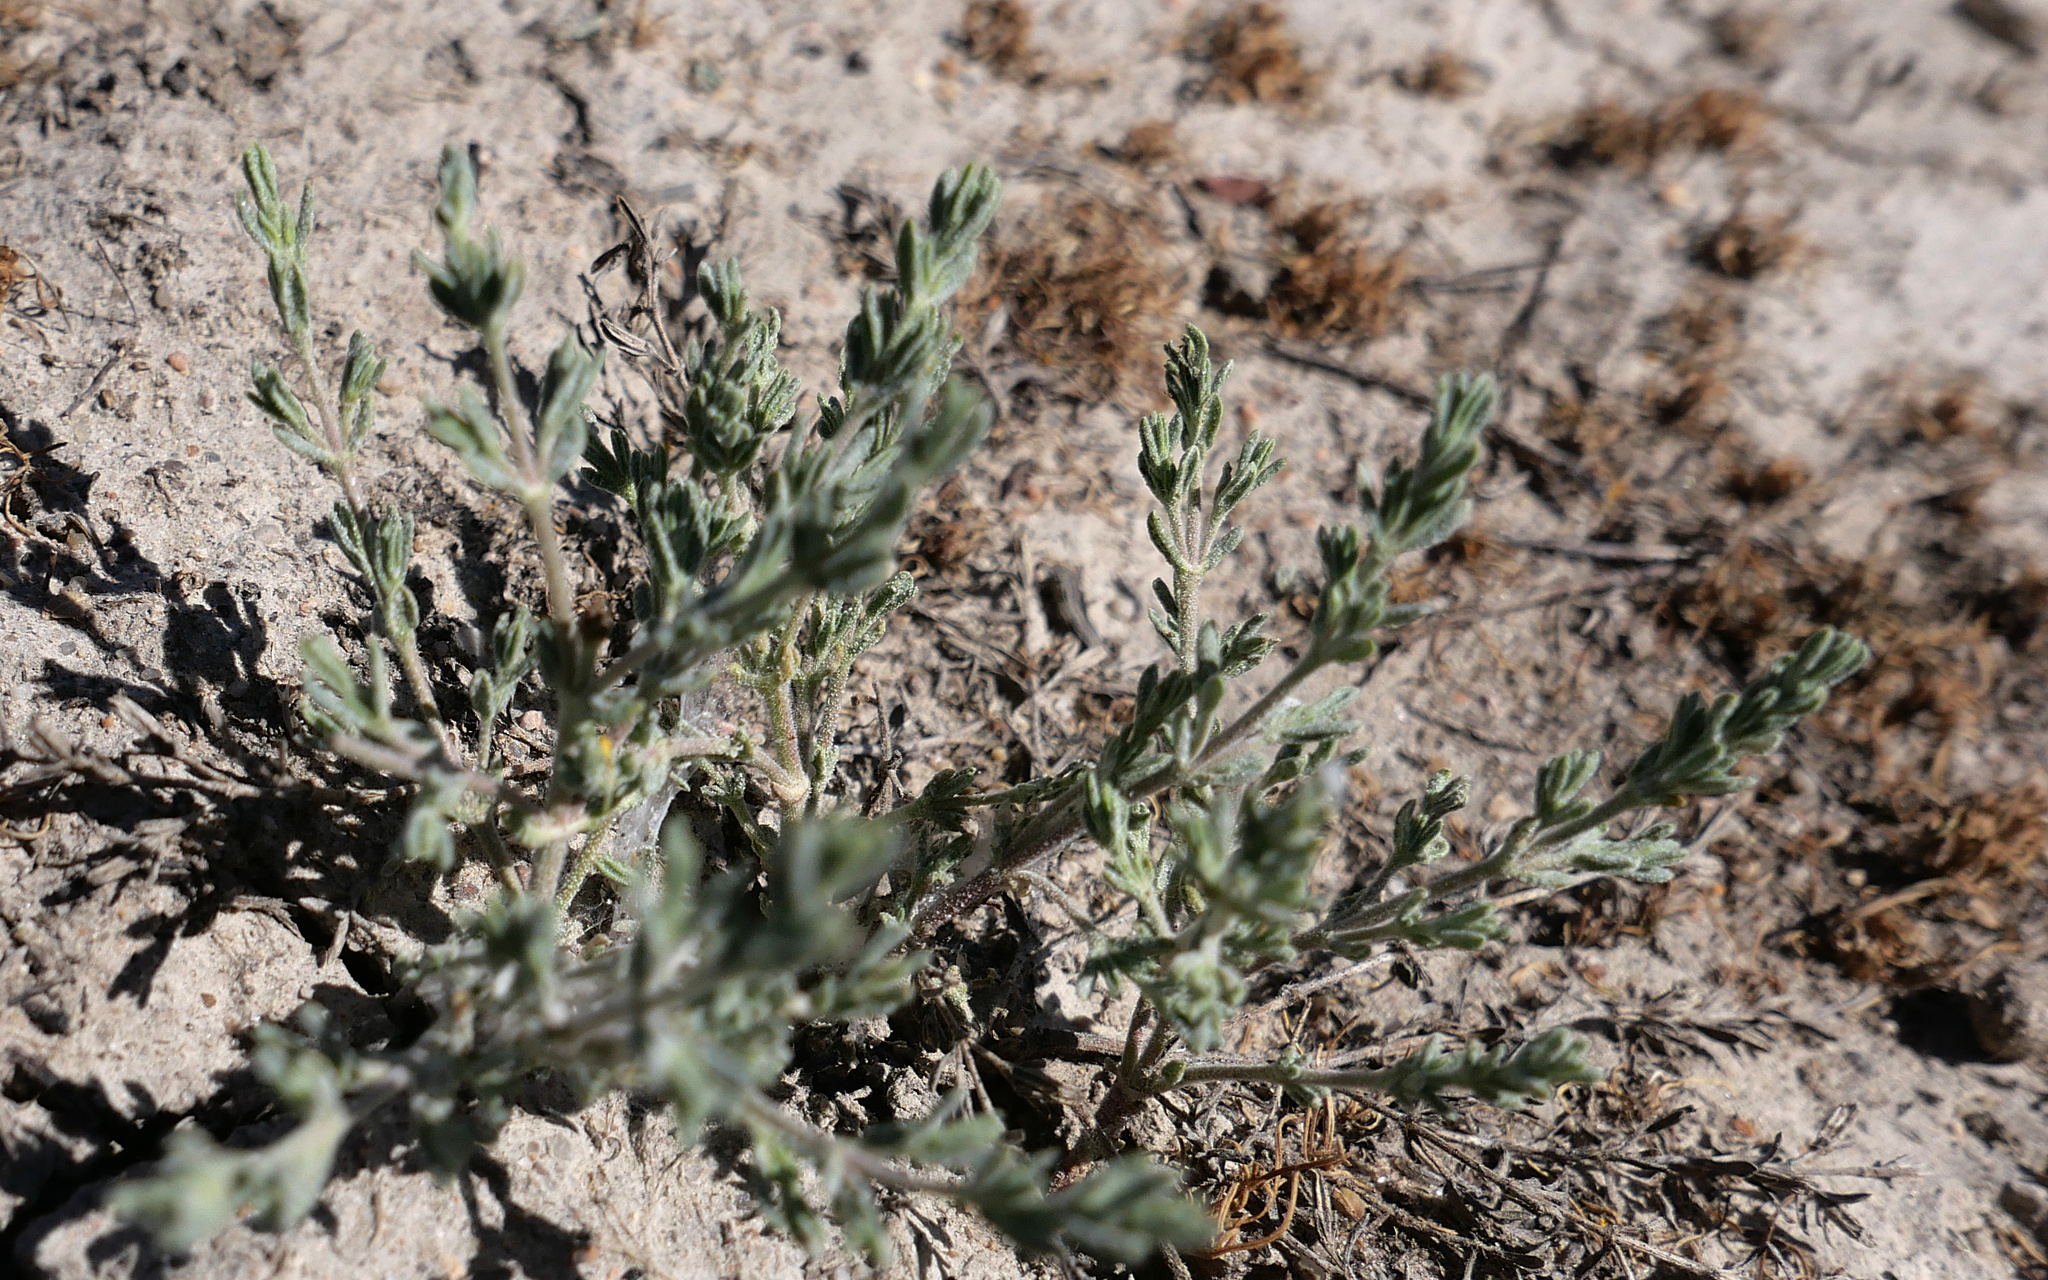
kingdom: Plantae
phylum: Tracheophyta
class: Magnoliopsida
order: Caryophyllales
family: Frankeniaceae
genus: Frankenia
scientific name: Frankenia salina
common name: Alkali seaheath
